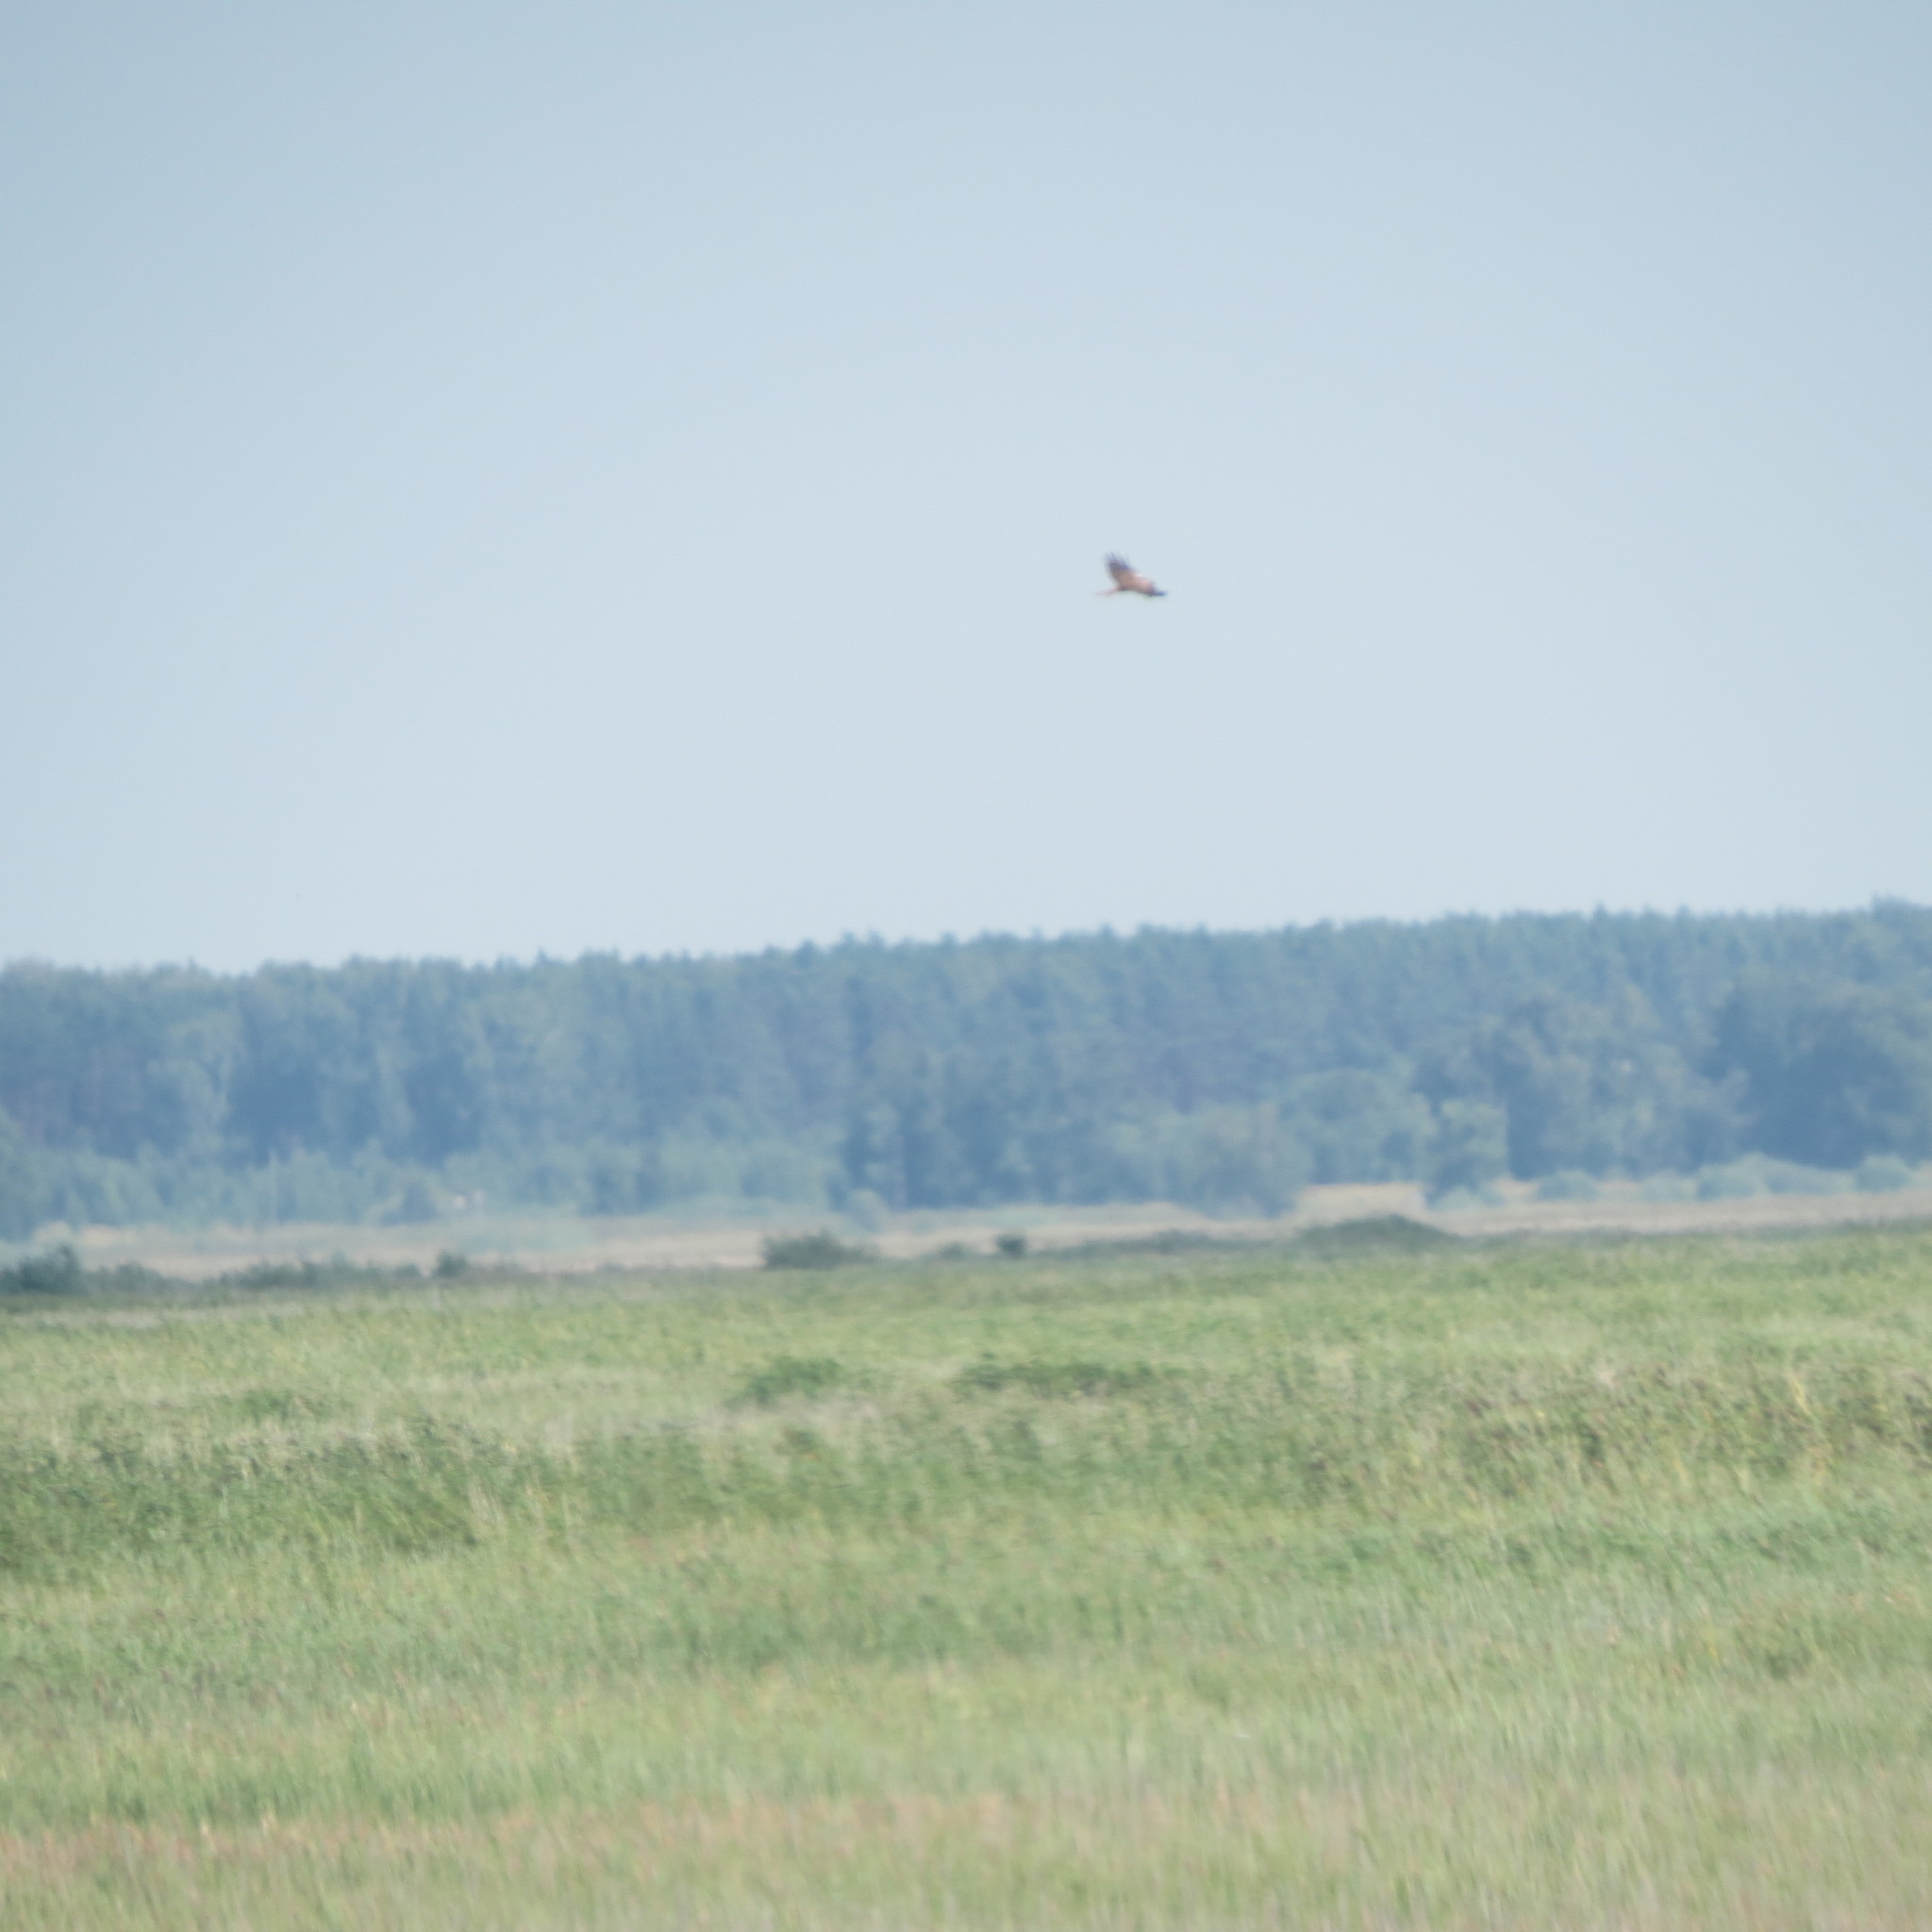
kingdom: Animalia
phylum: Chordata
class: Aves
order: Accipitriformes
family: Accipitridae
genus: Circus
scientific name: Circus aeruginosus
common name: Western marsh harrier
